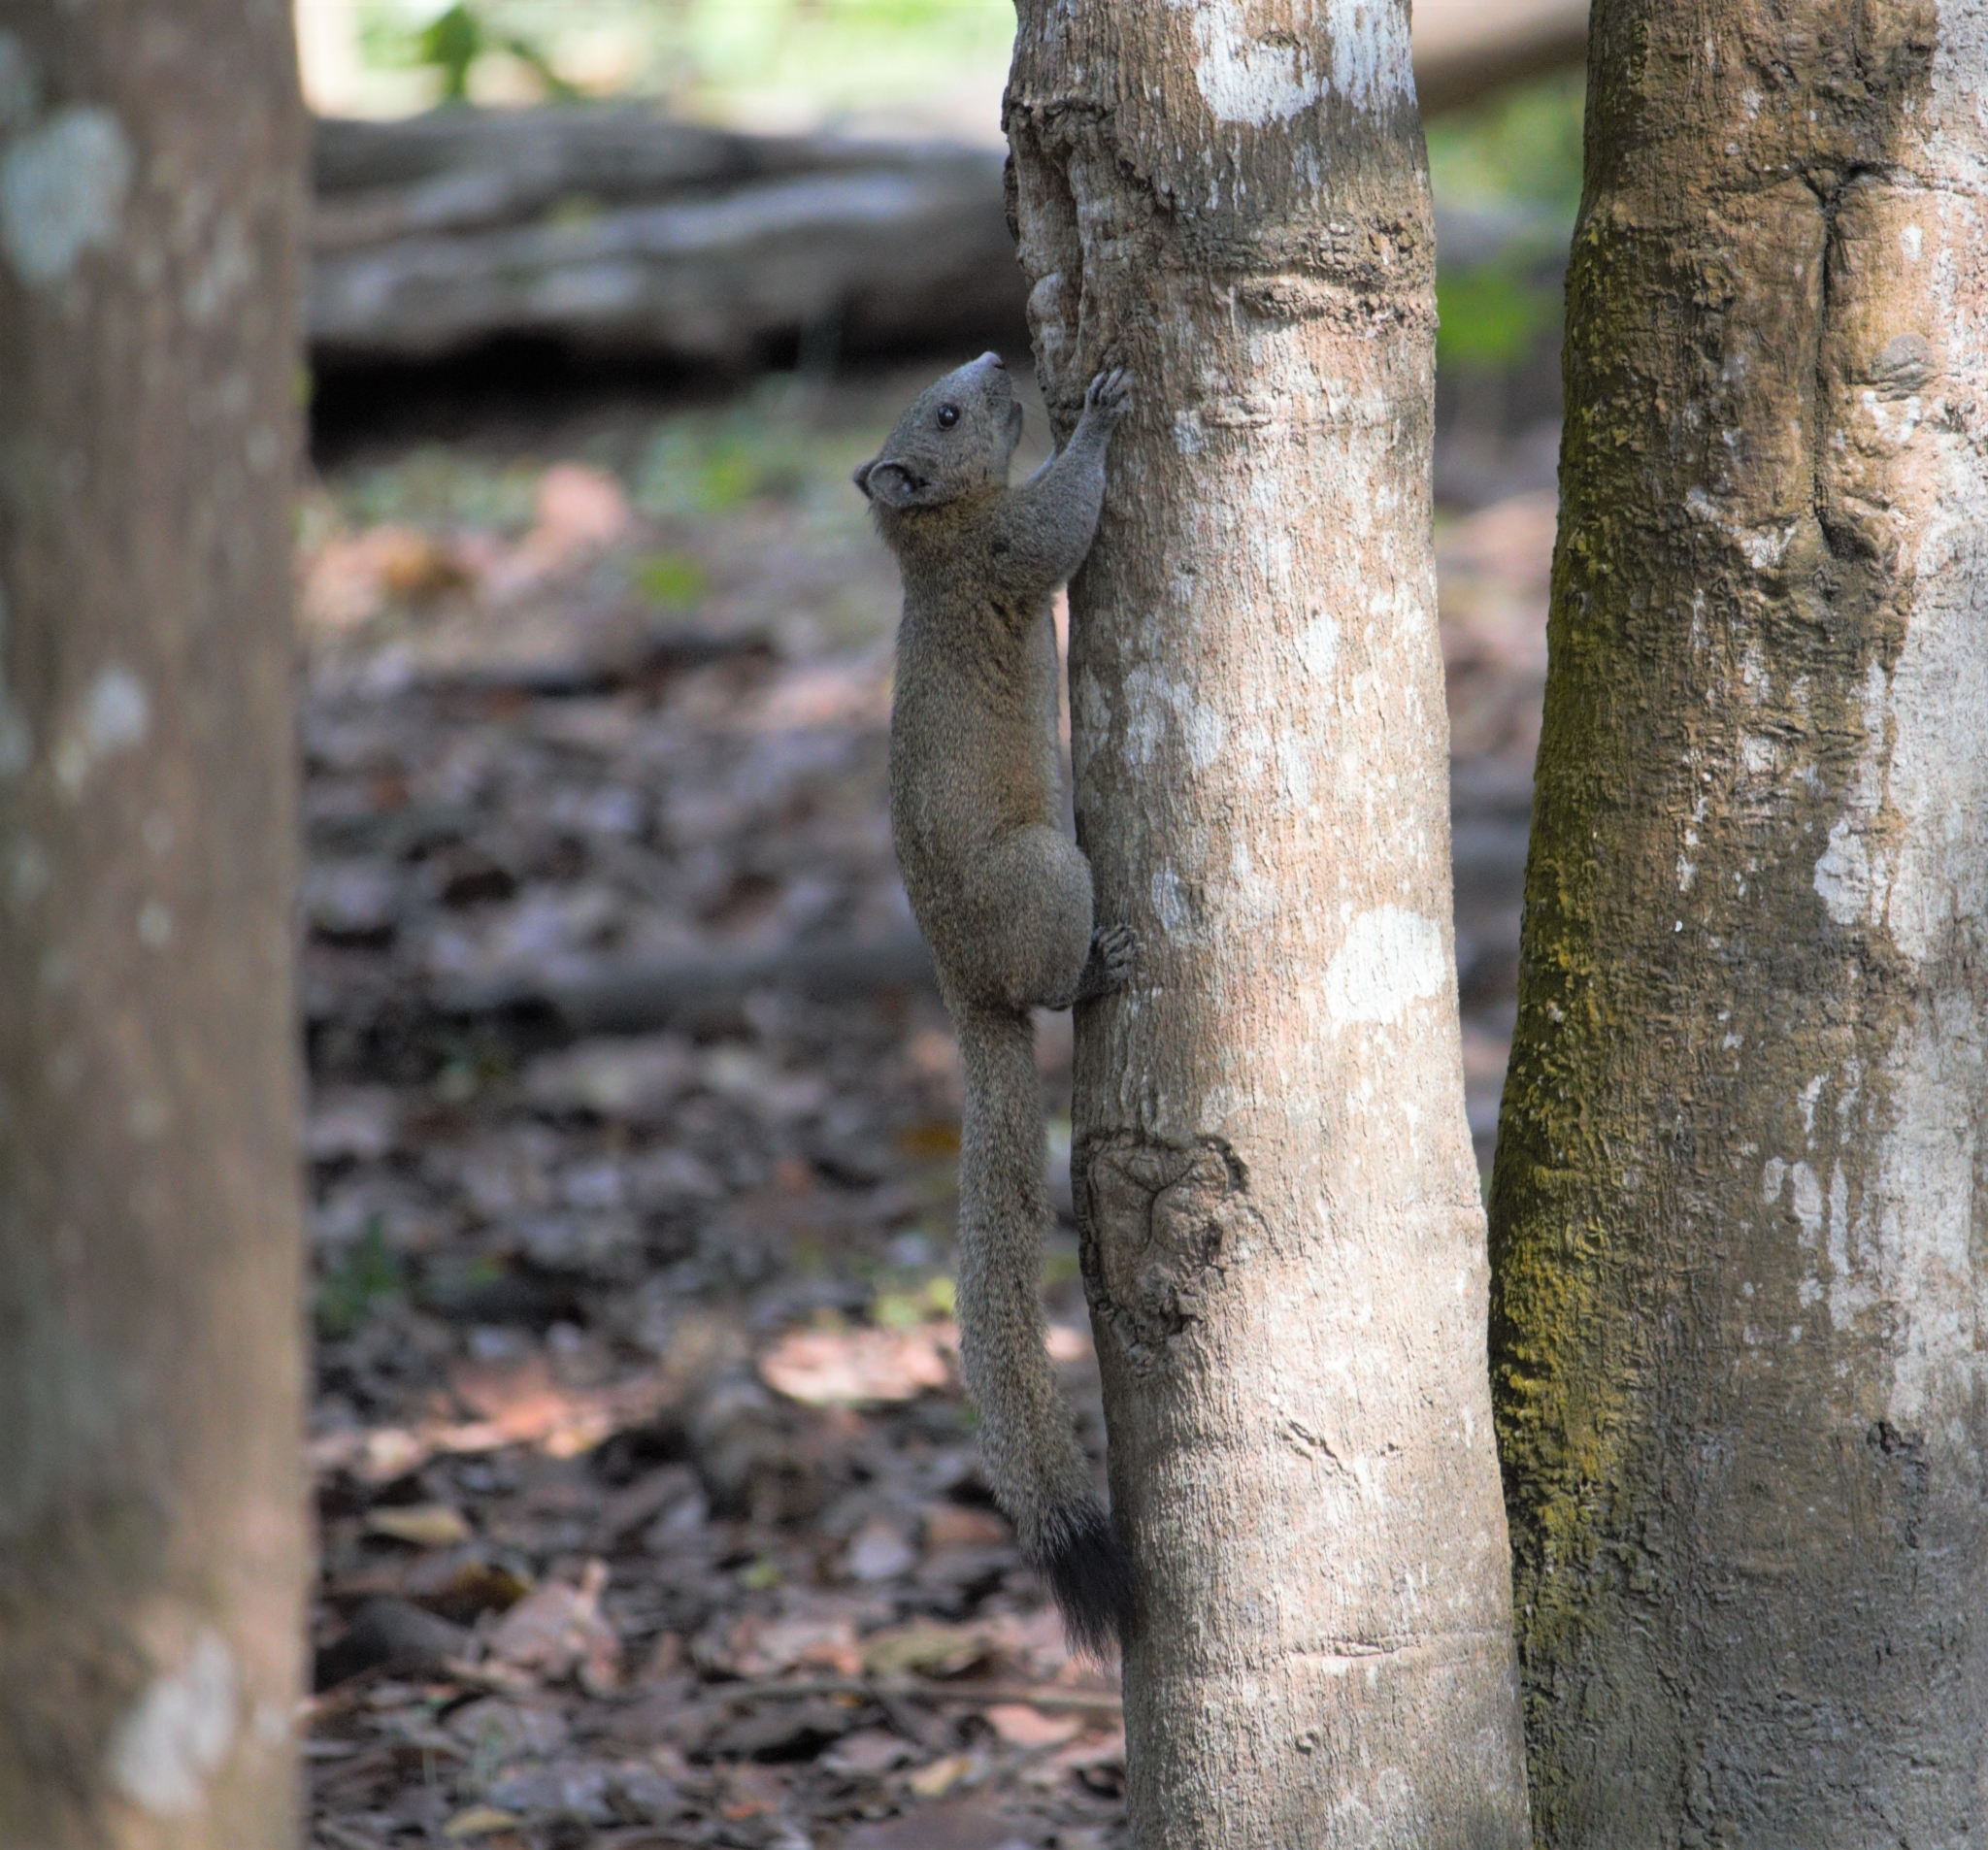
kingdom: Animalia
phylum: Chordata
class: Mammalia
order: Rodentia
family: Sciuridae
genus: Callosciurus
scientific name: Callosciurus caniceps
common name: Gray-bellied squirrel
